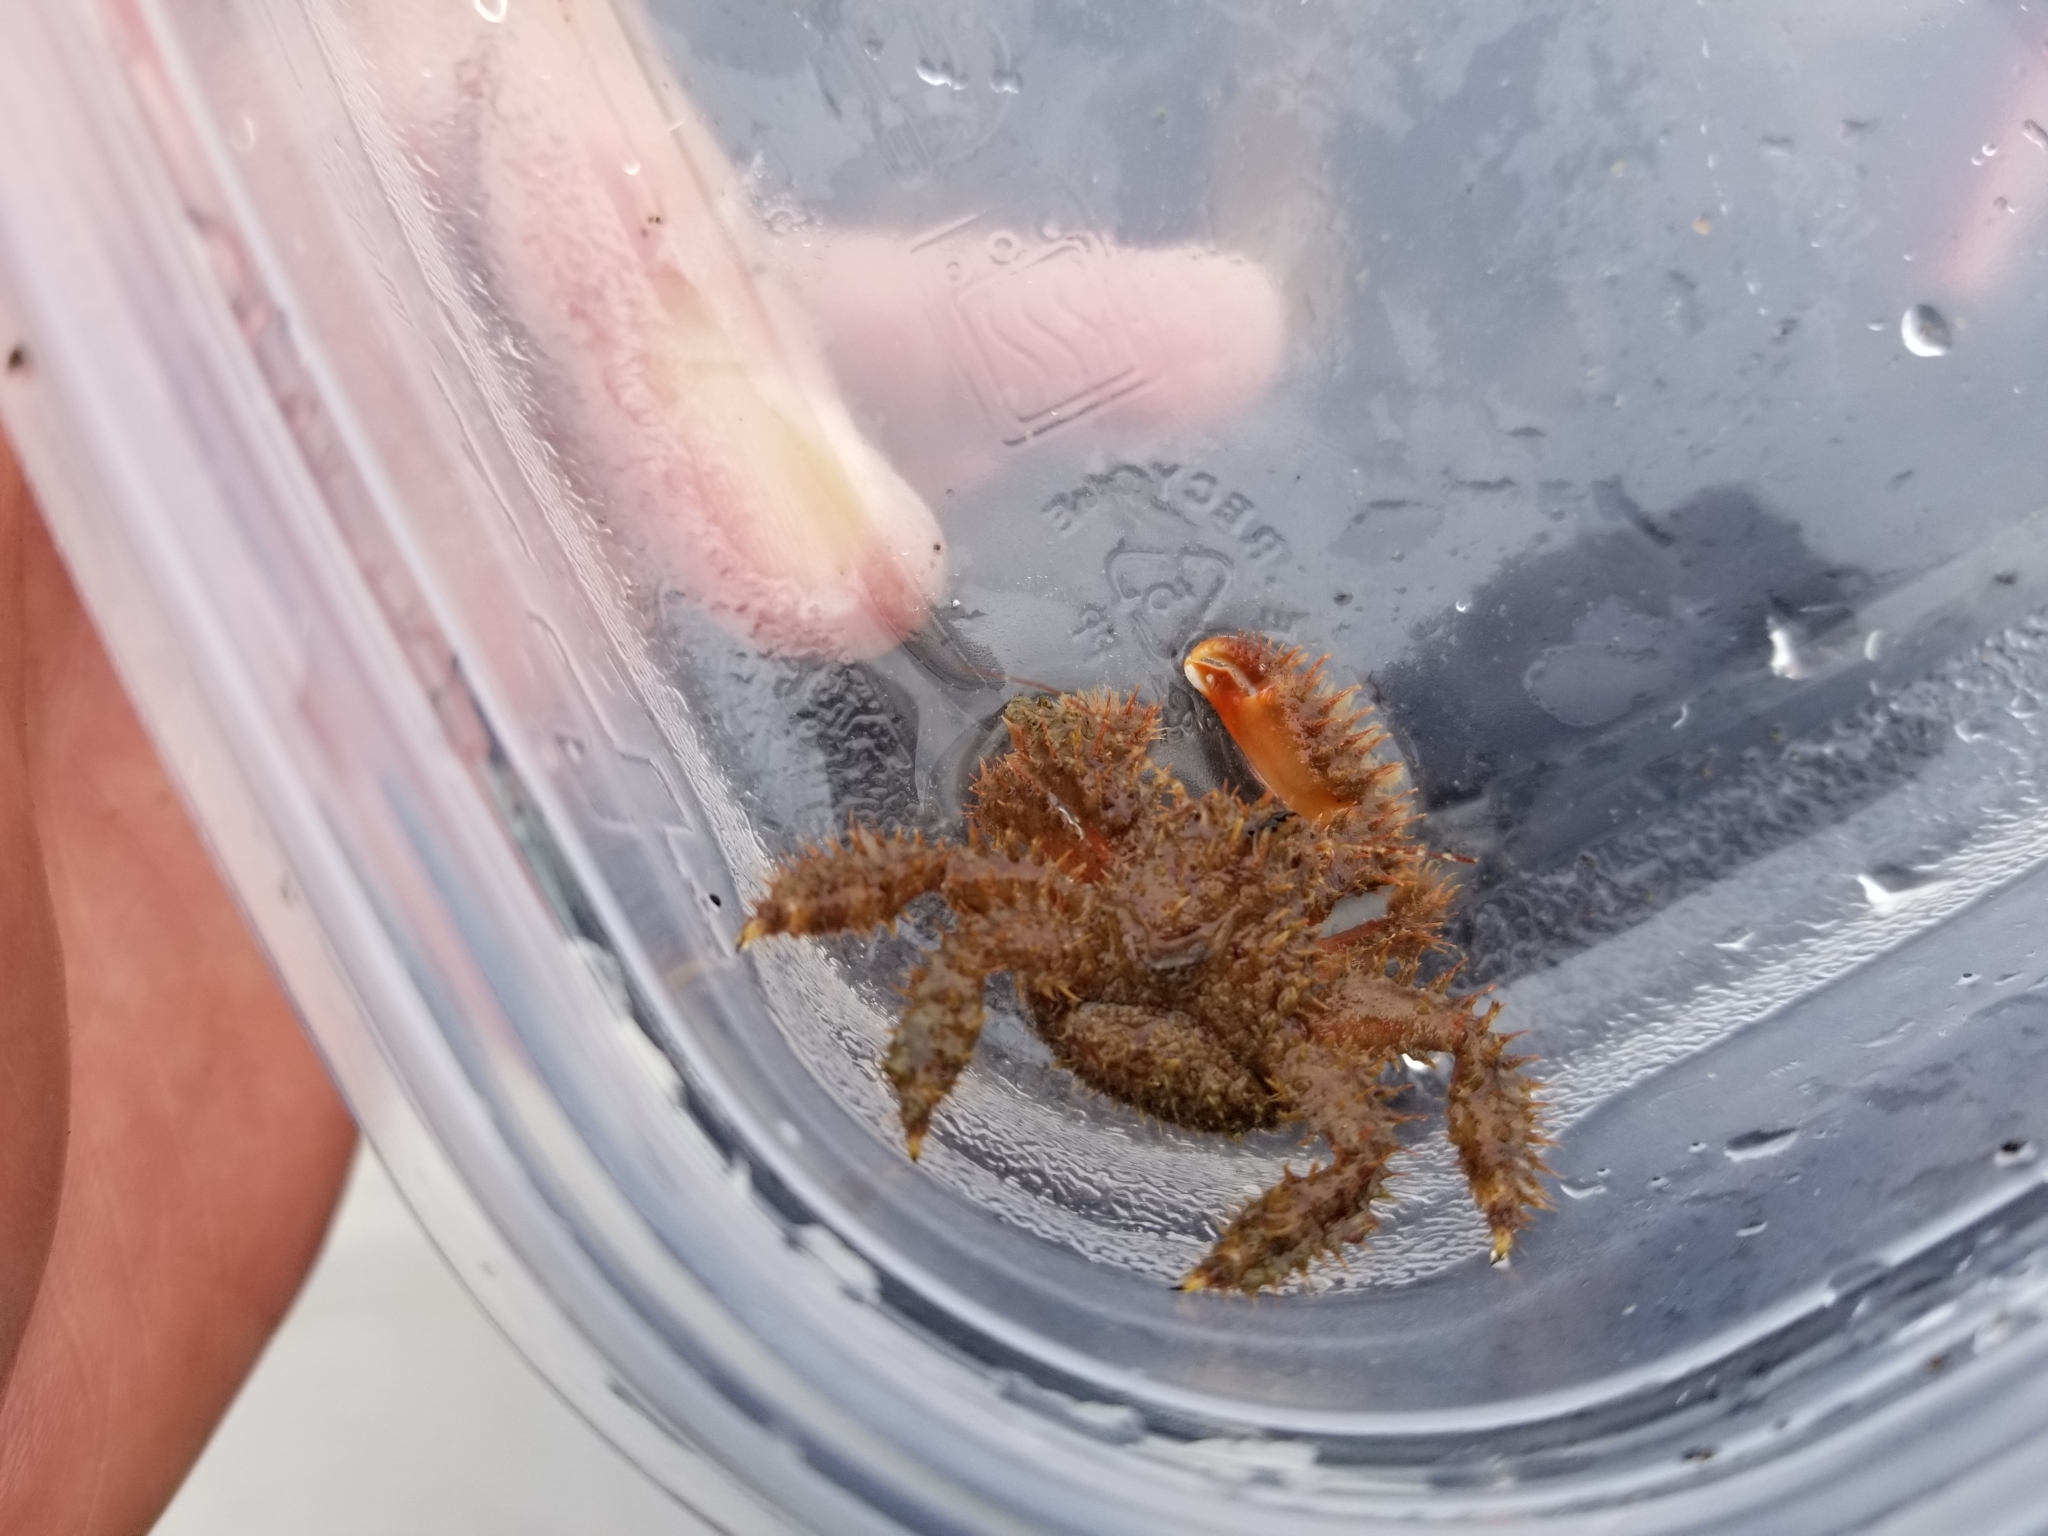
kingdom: Animalia
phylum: Arthropoda
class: Malacostraca
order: Decapoda
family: Hapalogastridae
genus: Hapalogaster
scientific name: Hapalogaster mertensii
